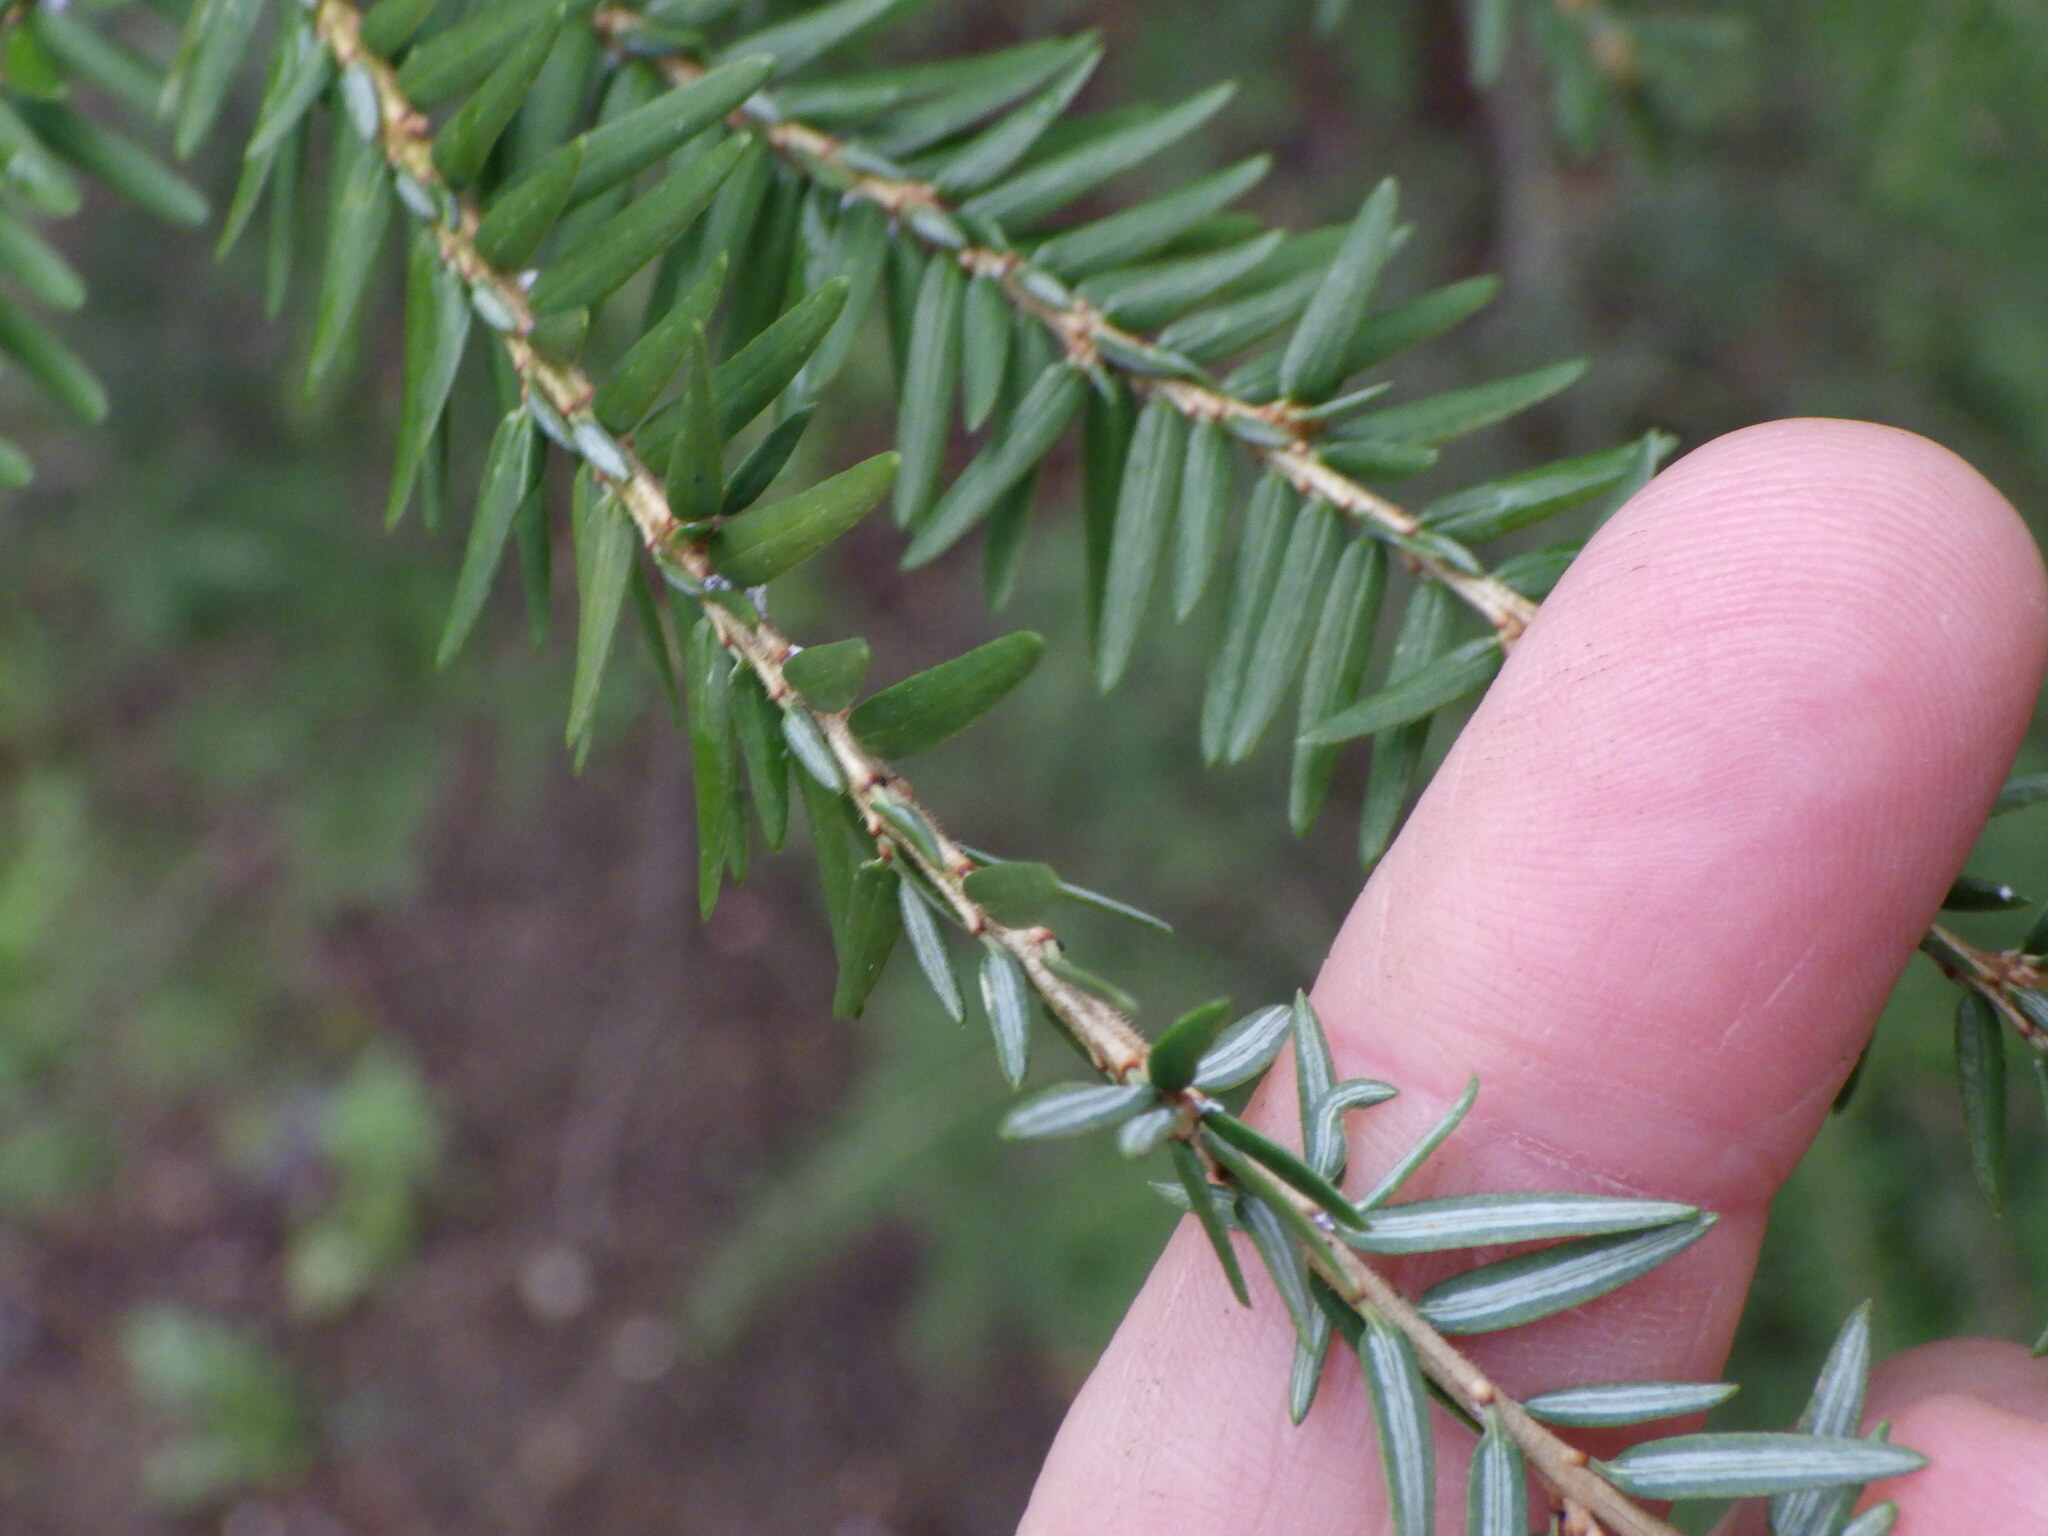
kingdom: Plantae
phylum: Tracheophyta
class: Pinopsida
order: Pinales
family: Pinaceae
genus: Tsuga
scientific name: Tsuga canadensis
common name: Eastern hemlock
